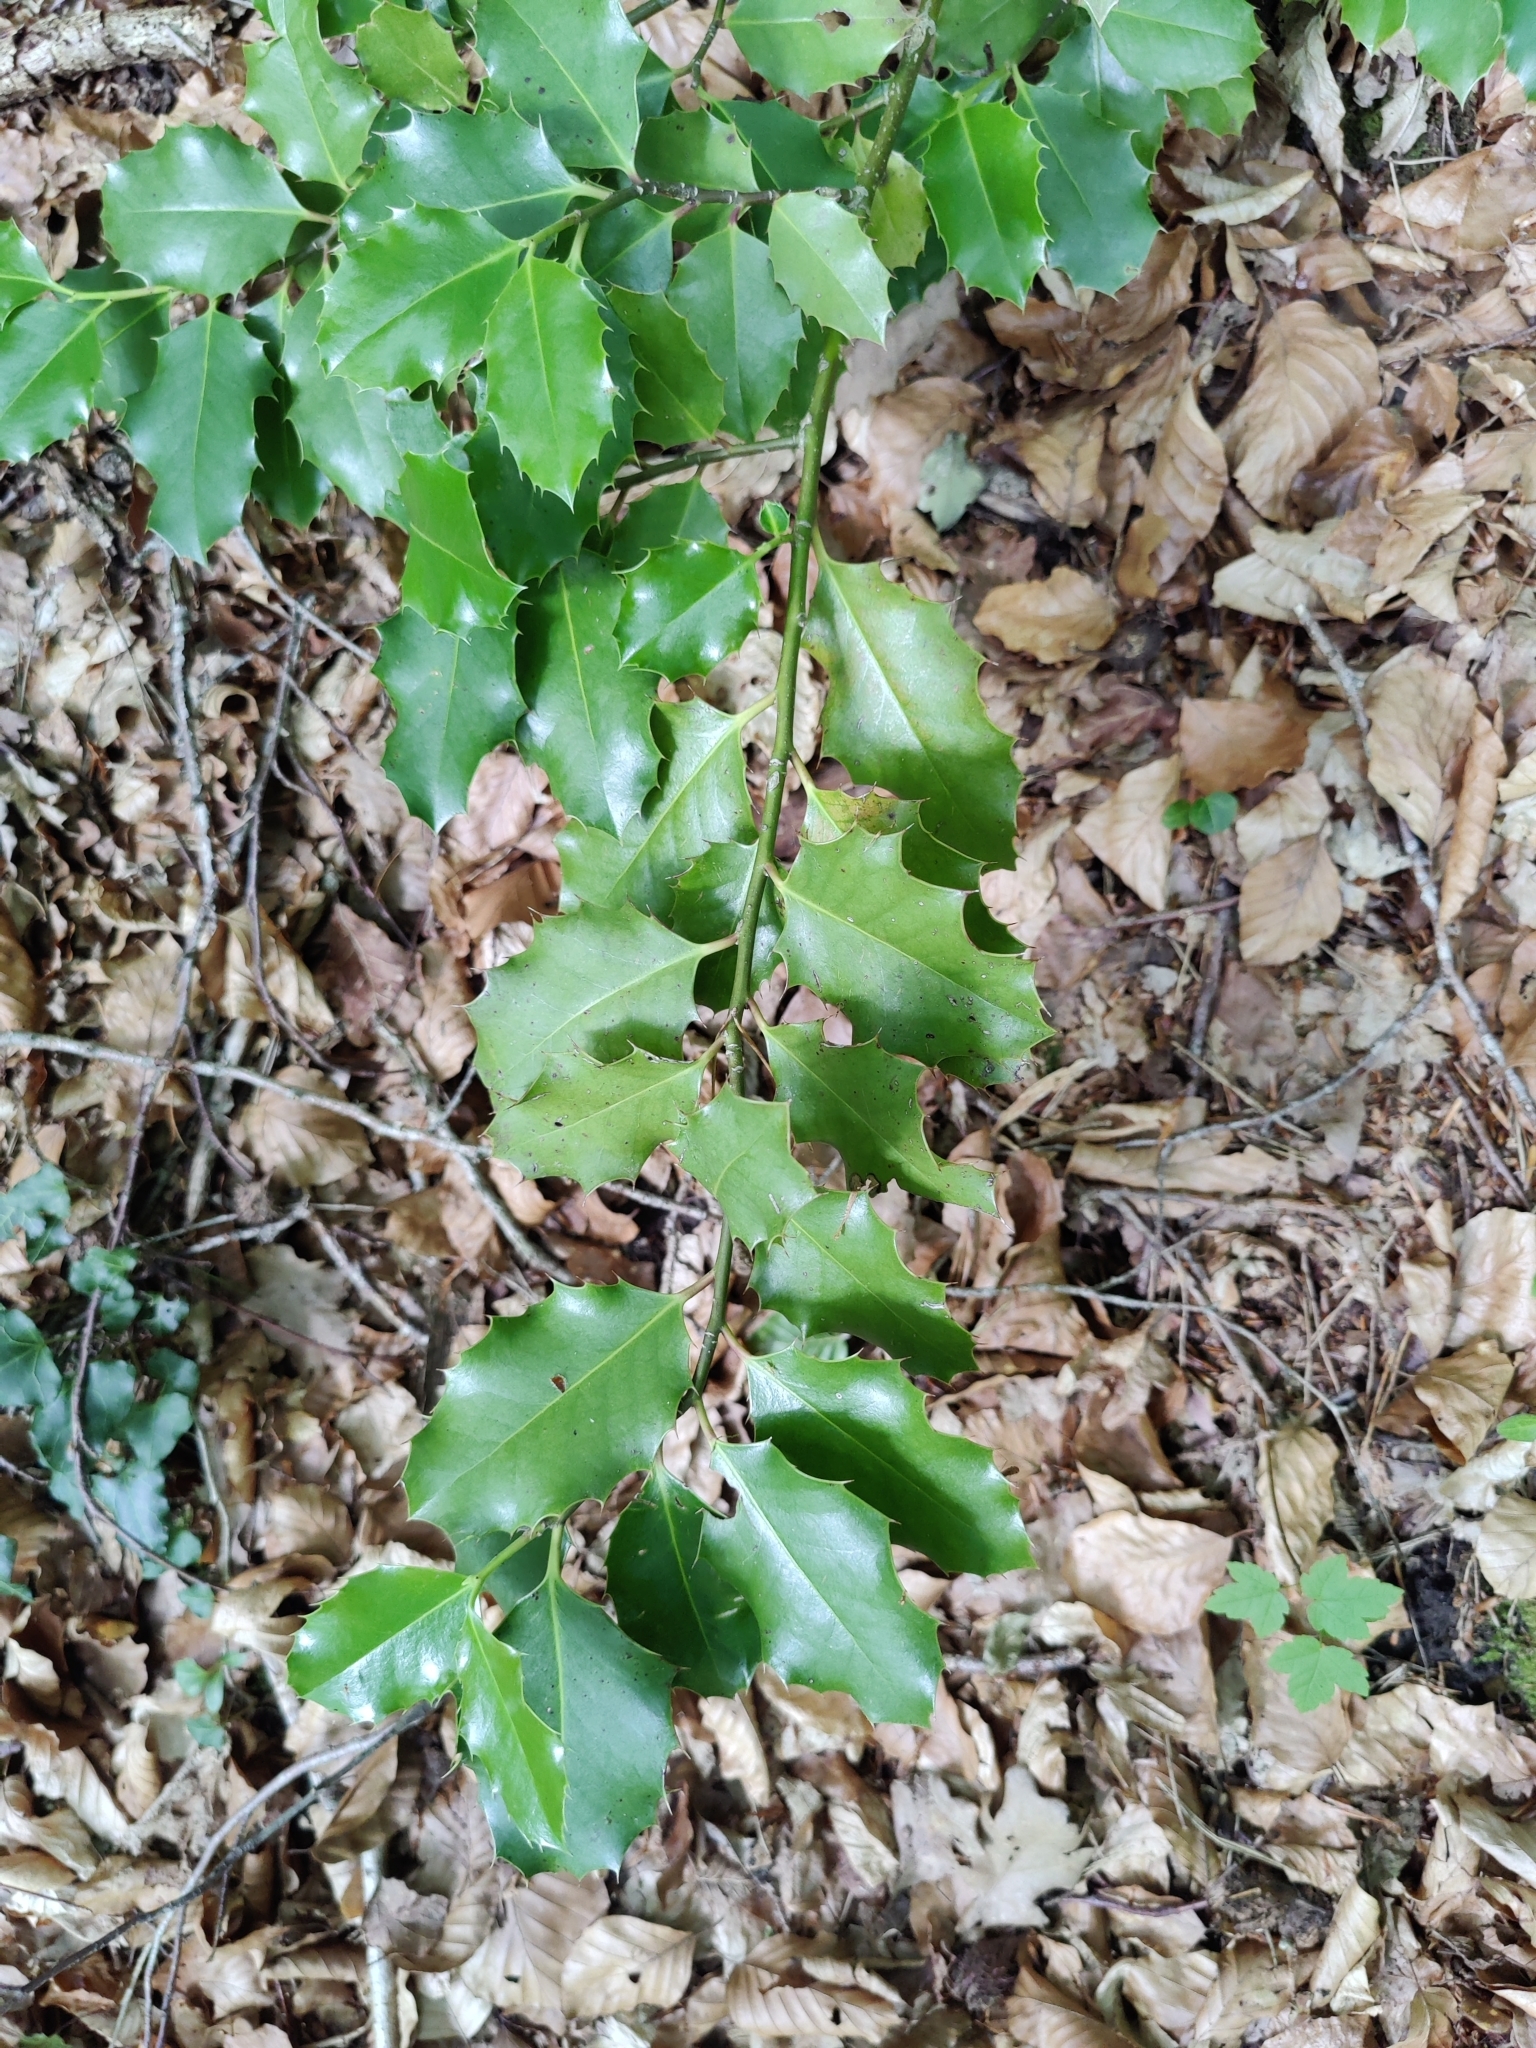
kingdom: Plantae
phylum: Tracheophyta
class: Magnoliopsida
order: Aquifoliales
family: Aquifoliaceae
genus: Ilex
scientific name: Ilex aquifolium
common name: English holly
